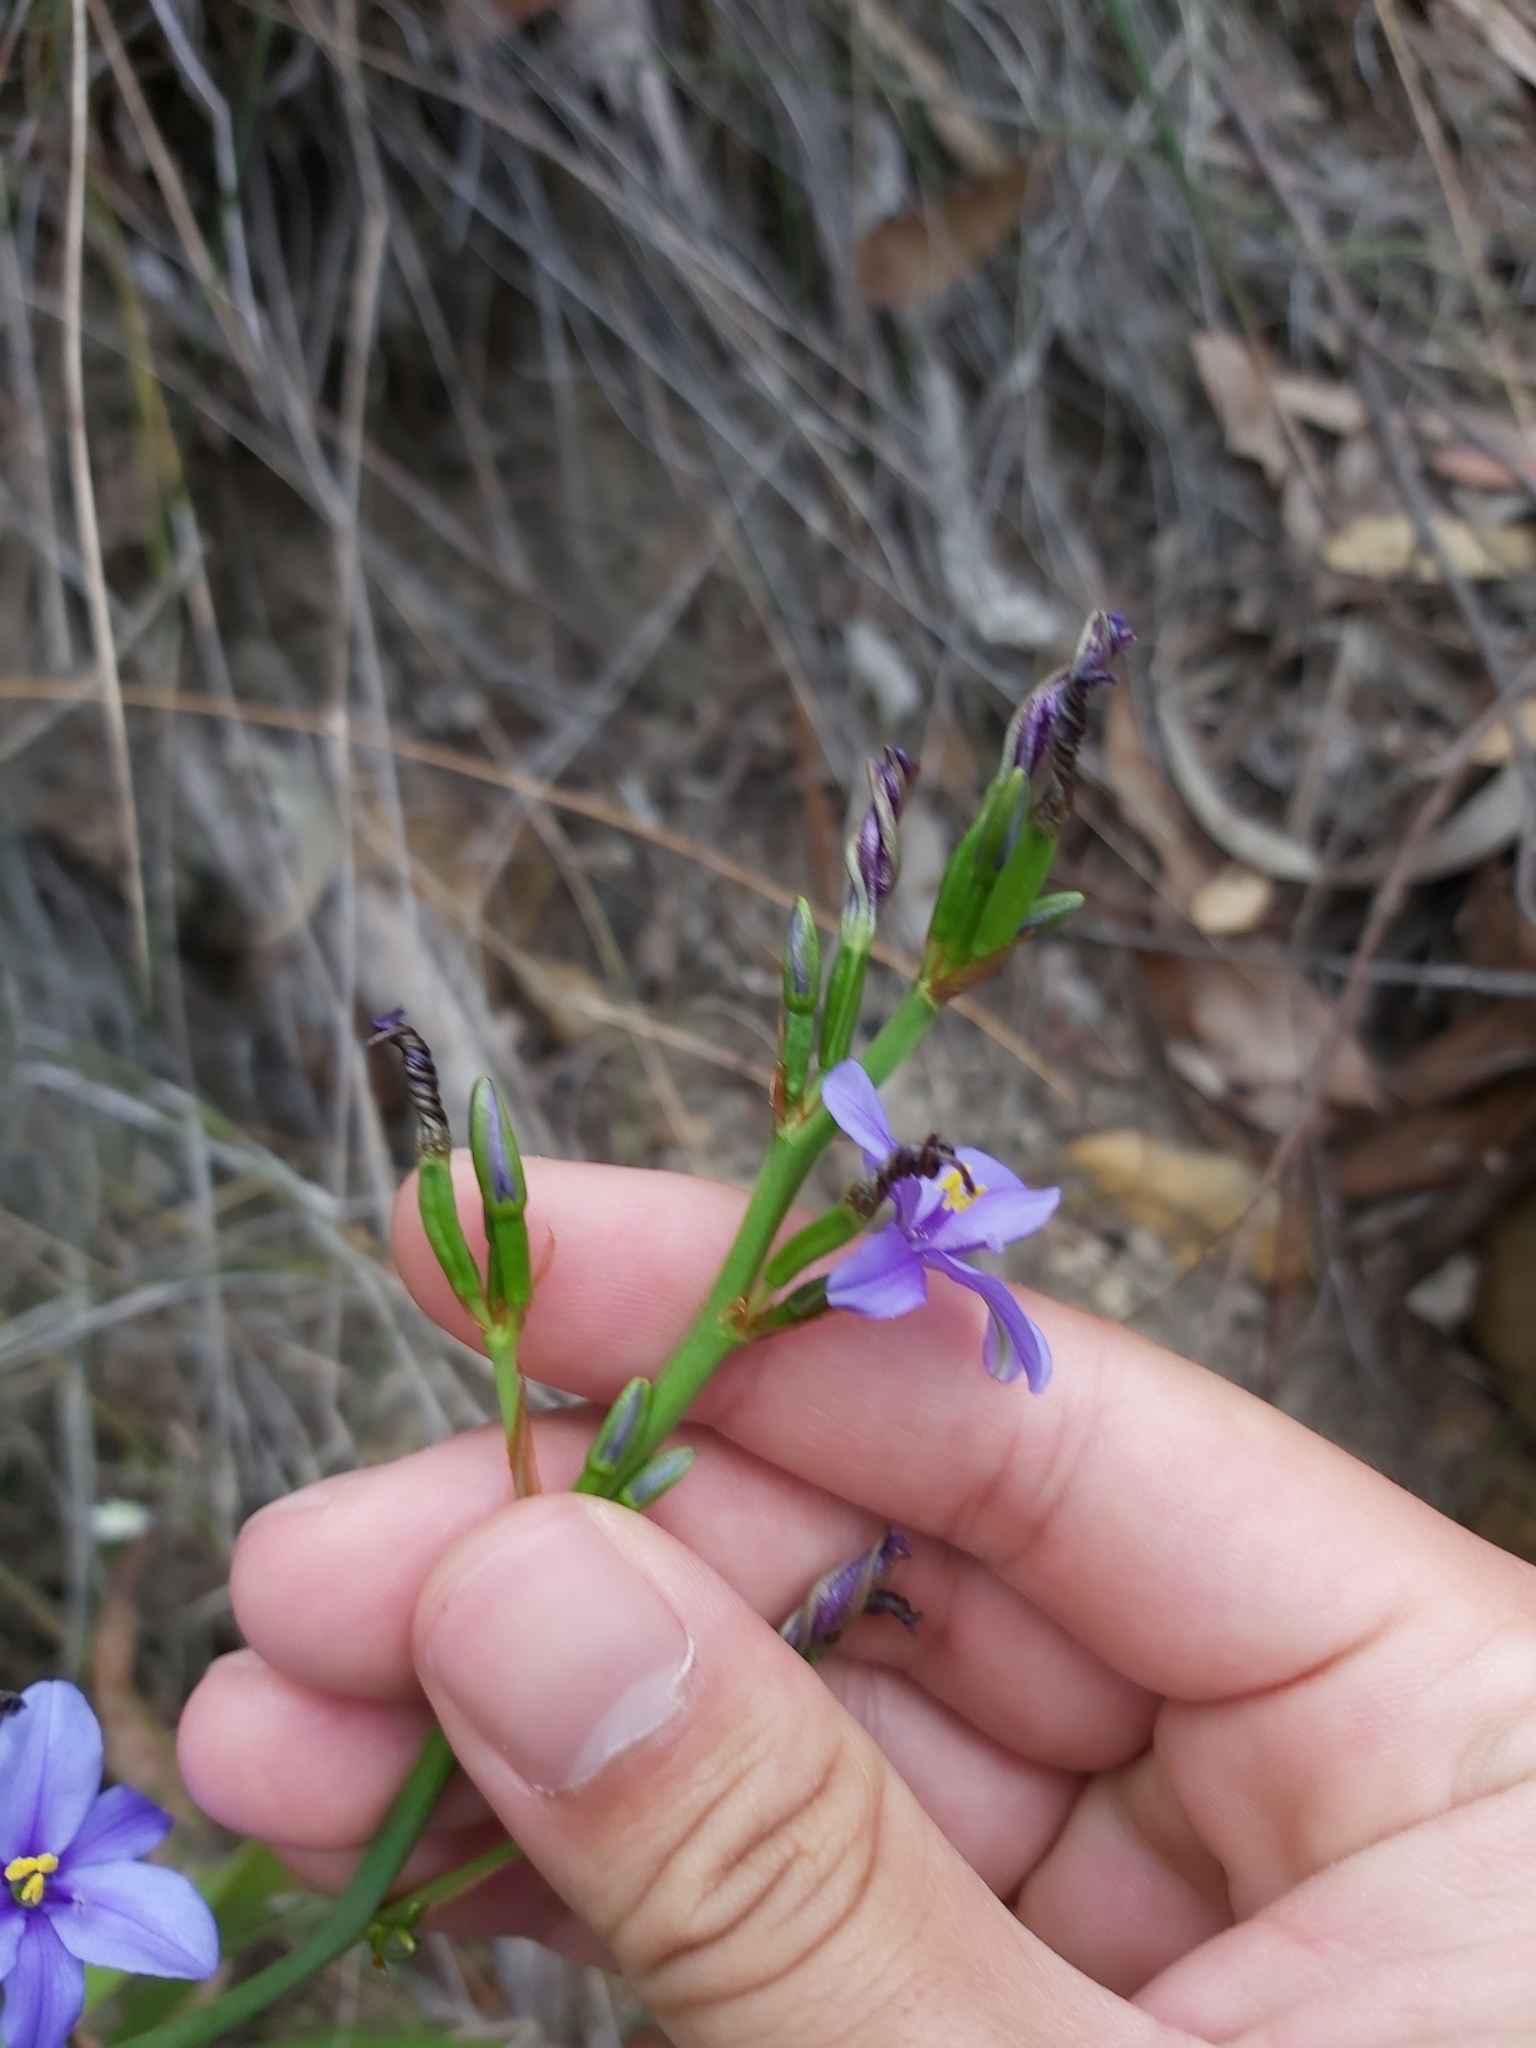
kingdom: Plantae
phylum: Tracheophyta
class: Liliopsida
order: Asparagales
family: Iridaceae
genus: Aristea
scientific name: Aristea ecklonii
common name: Blue corn-lily
